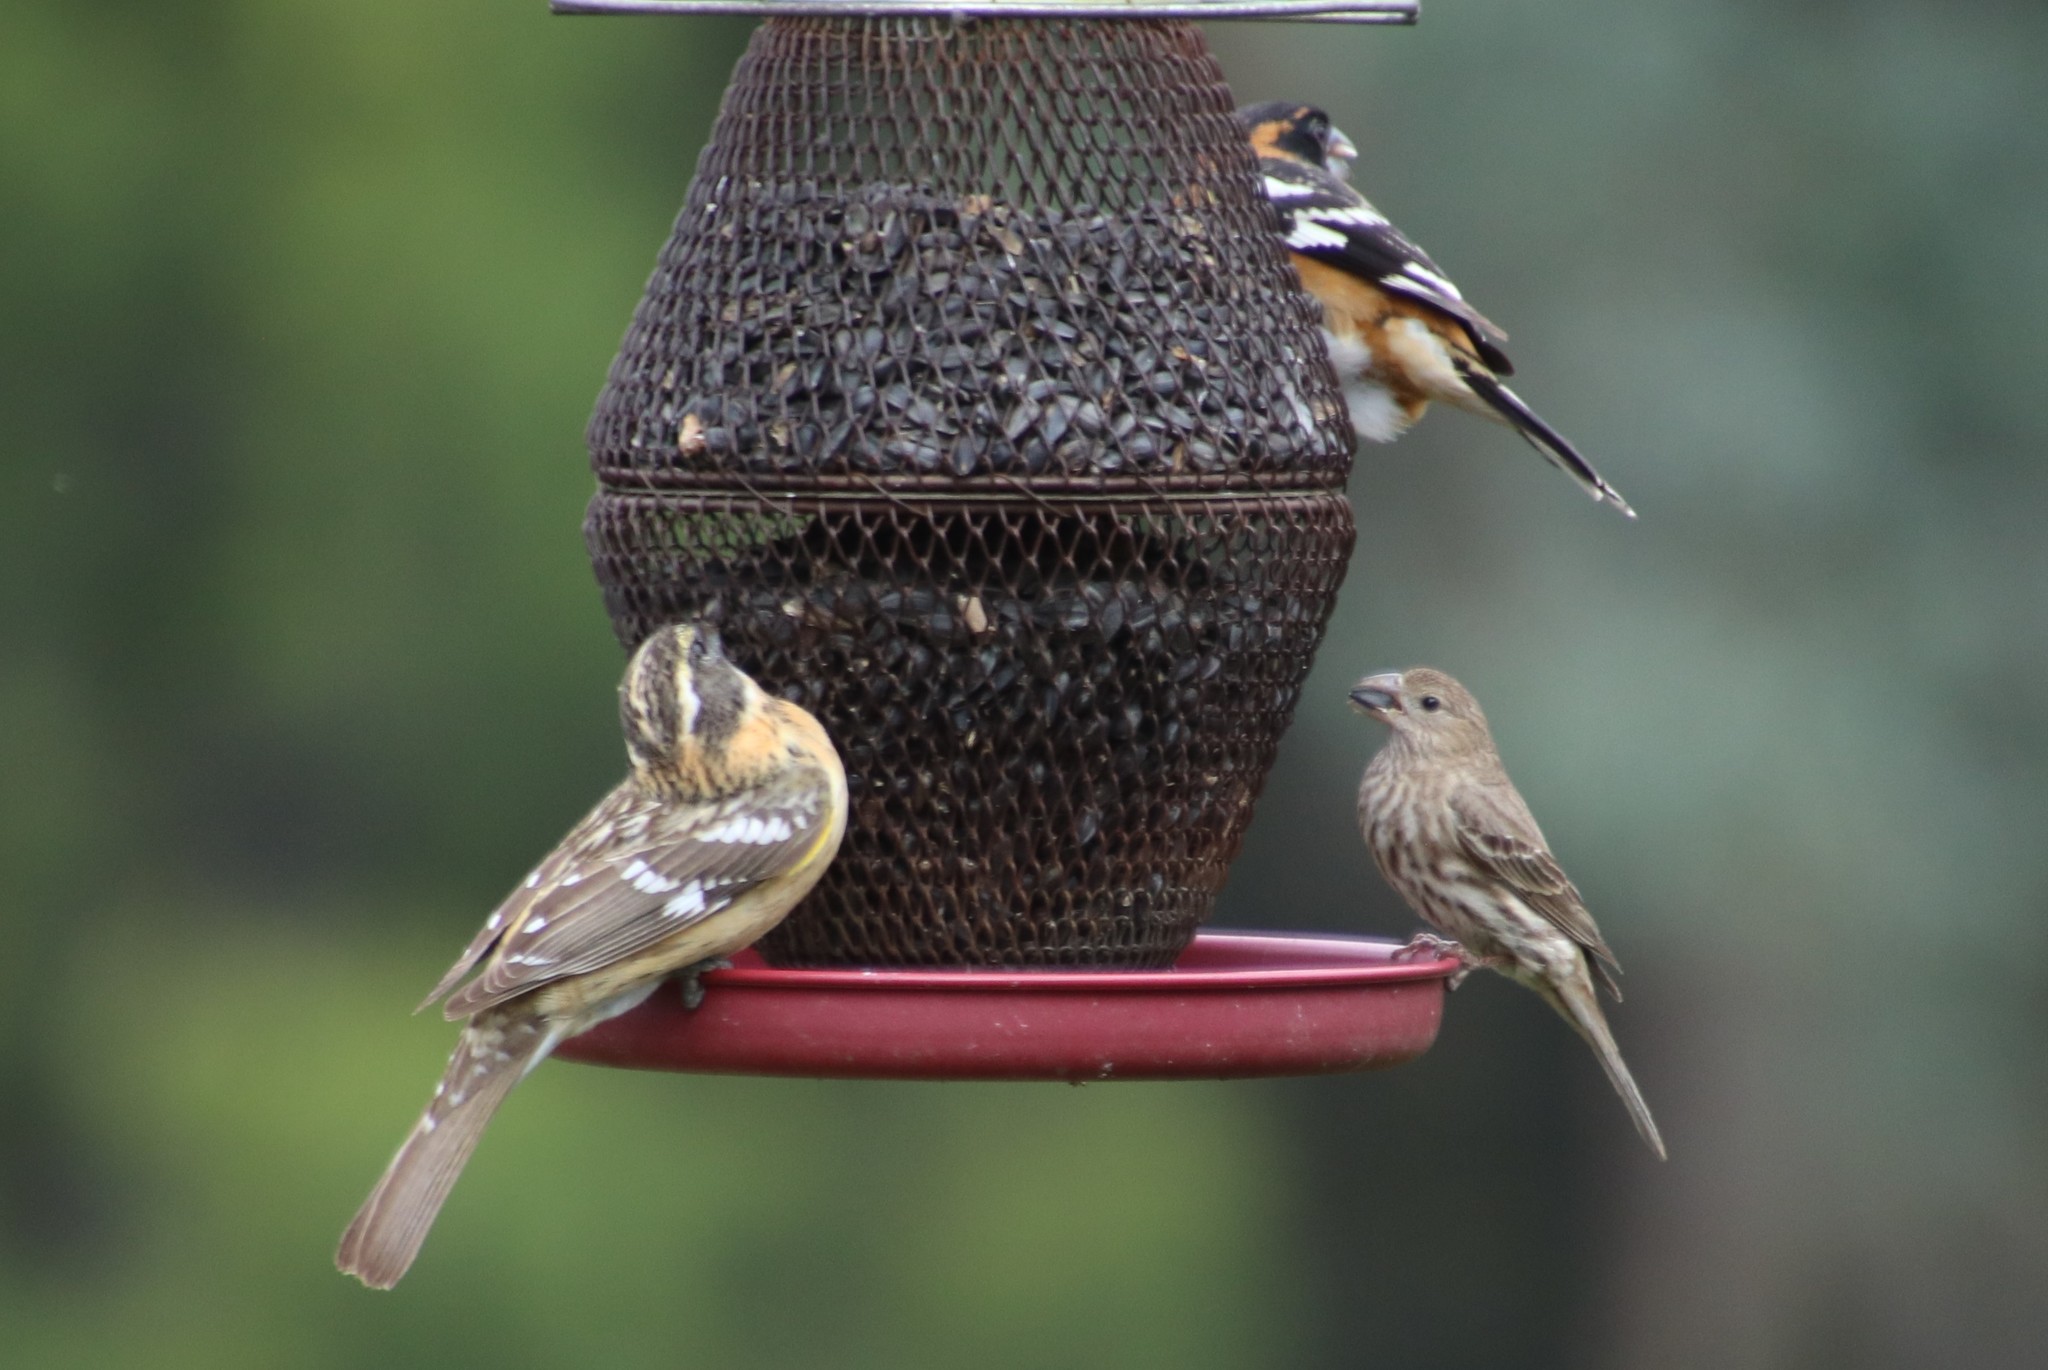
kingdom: Animalia
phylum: Chordata
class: Aves
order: Passeriformes
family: Cardinalidae
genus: Pheucticus
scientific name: Pheucticus melanocephalus
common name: Black-headed grosbeak
